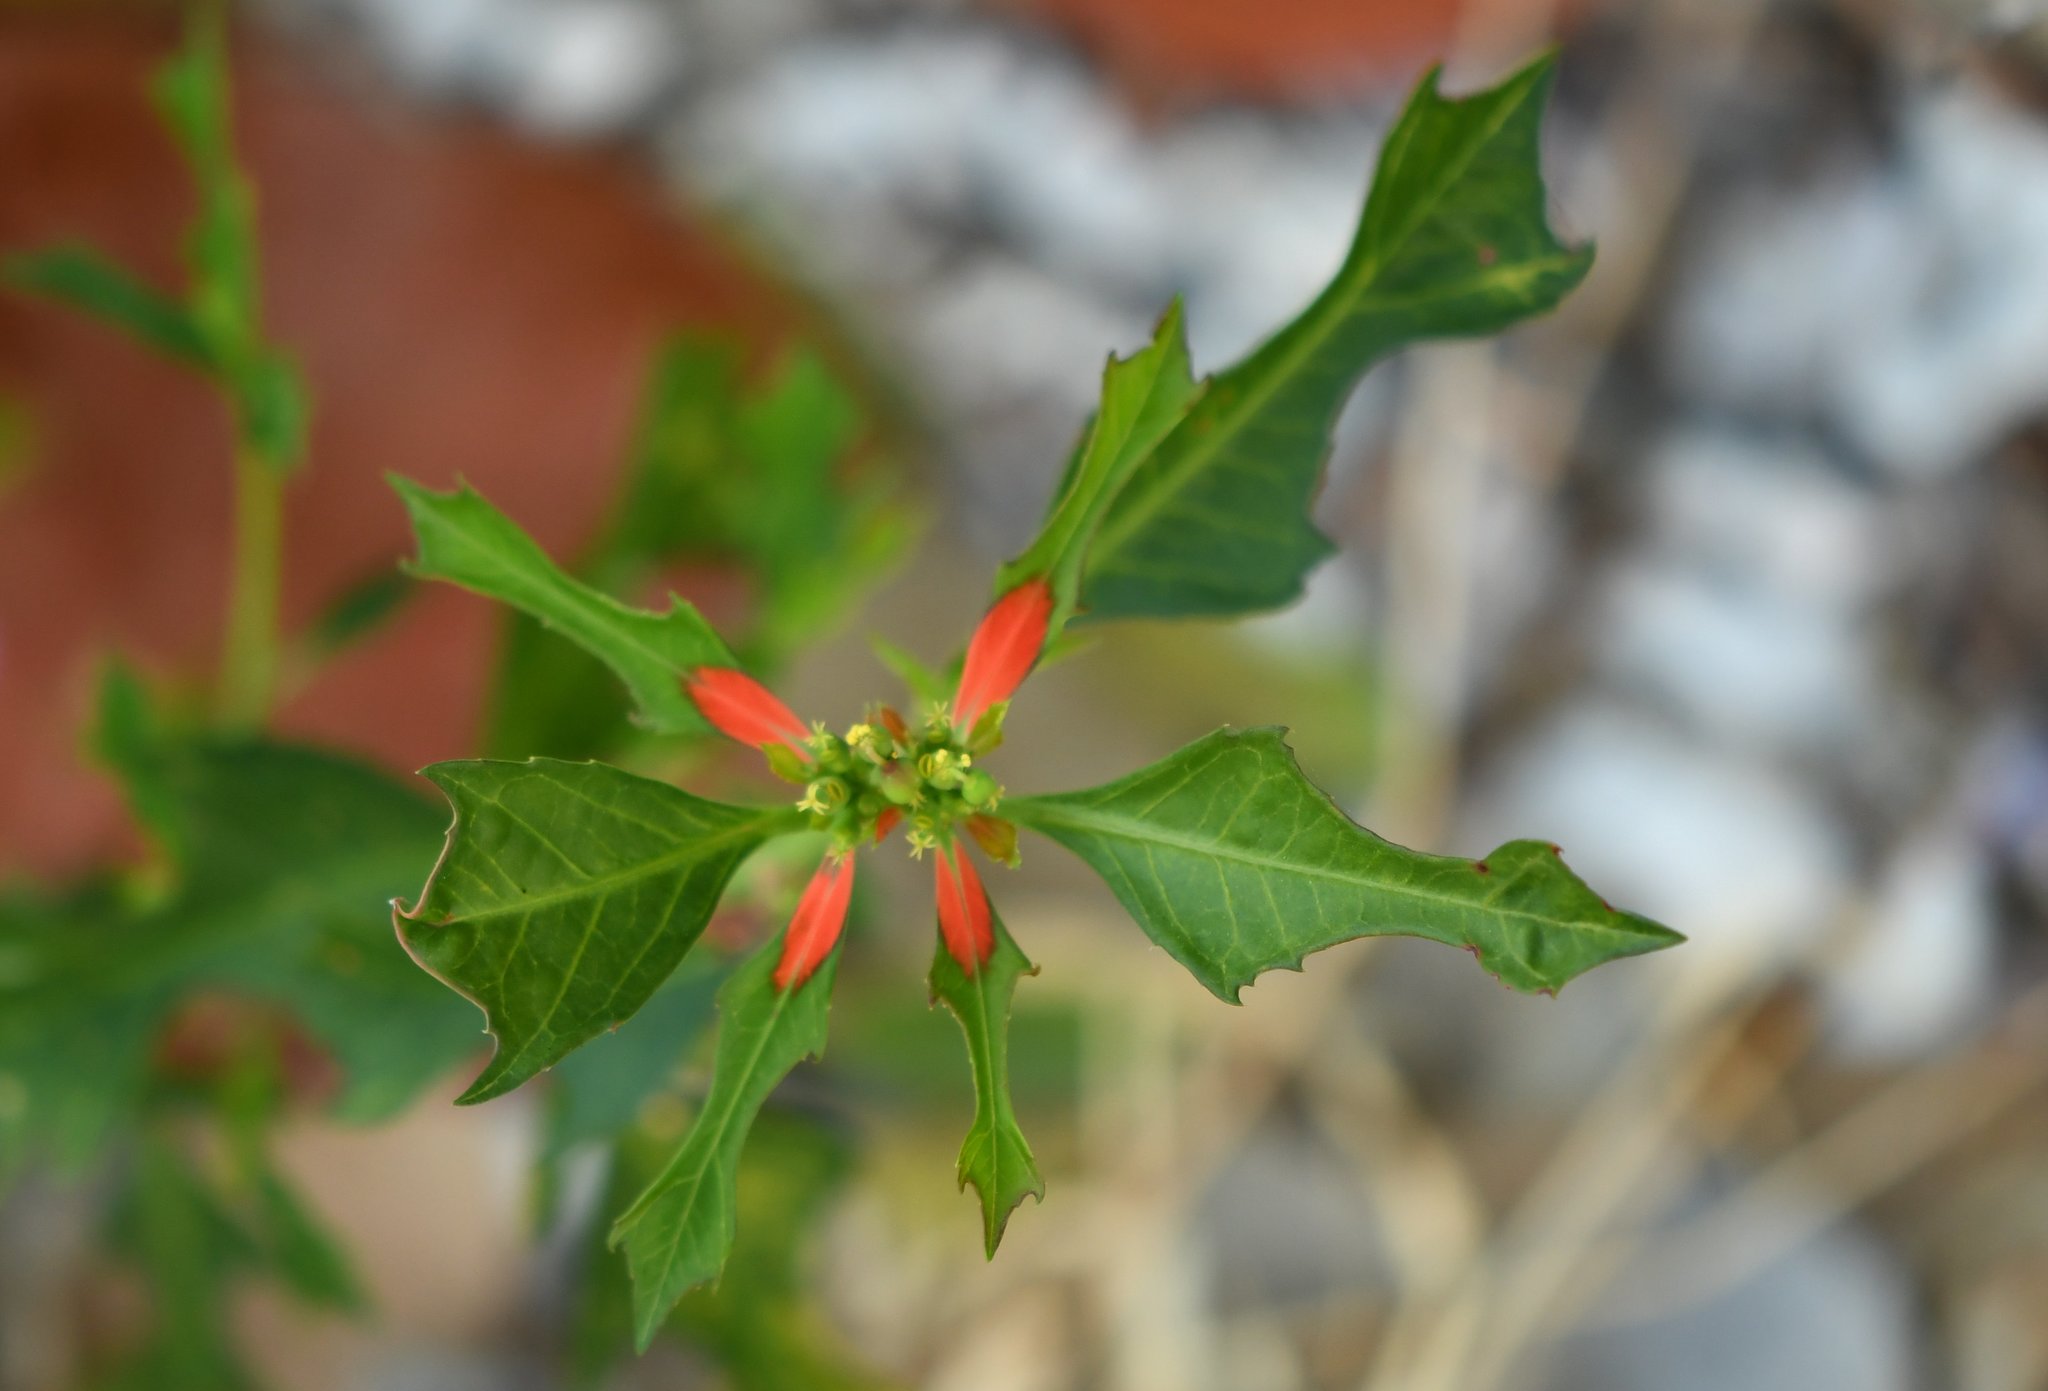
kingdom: Plantae
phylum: Tracheophyta
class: Magnoliopsida
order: Malpighiales
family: Euphorbiaceae
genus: Euphorbia
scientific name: Euphorbia heterophylla
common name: Mexican fireplant
